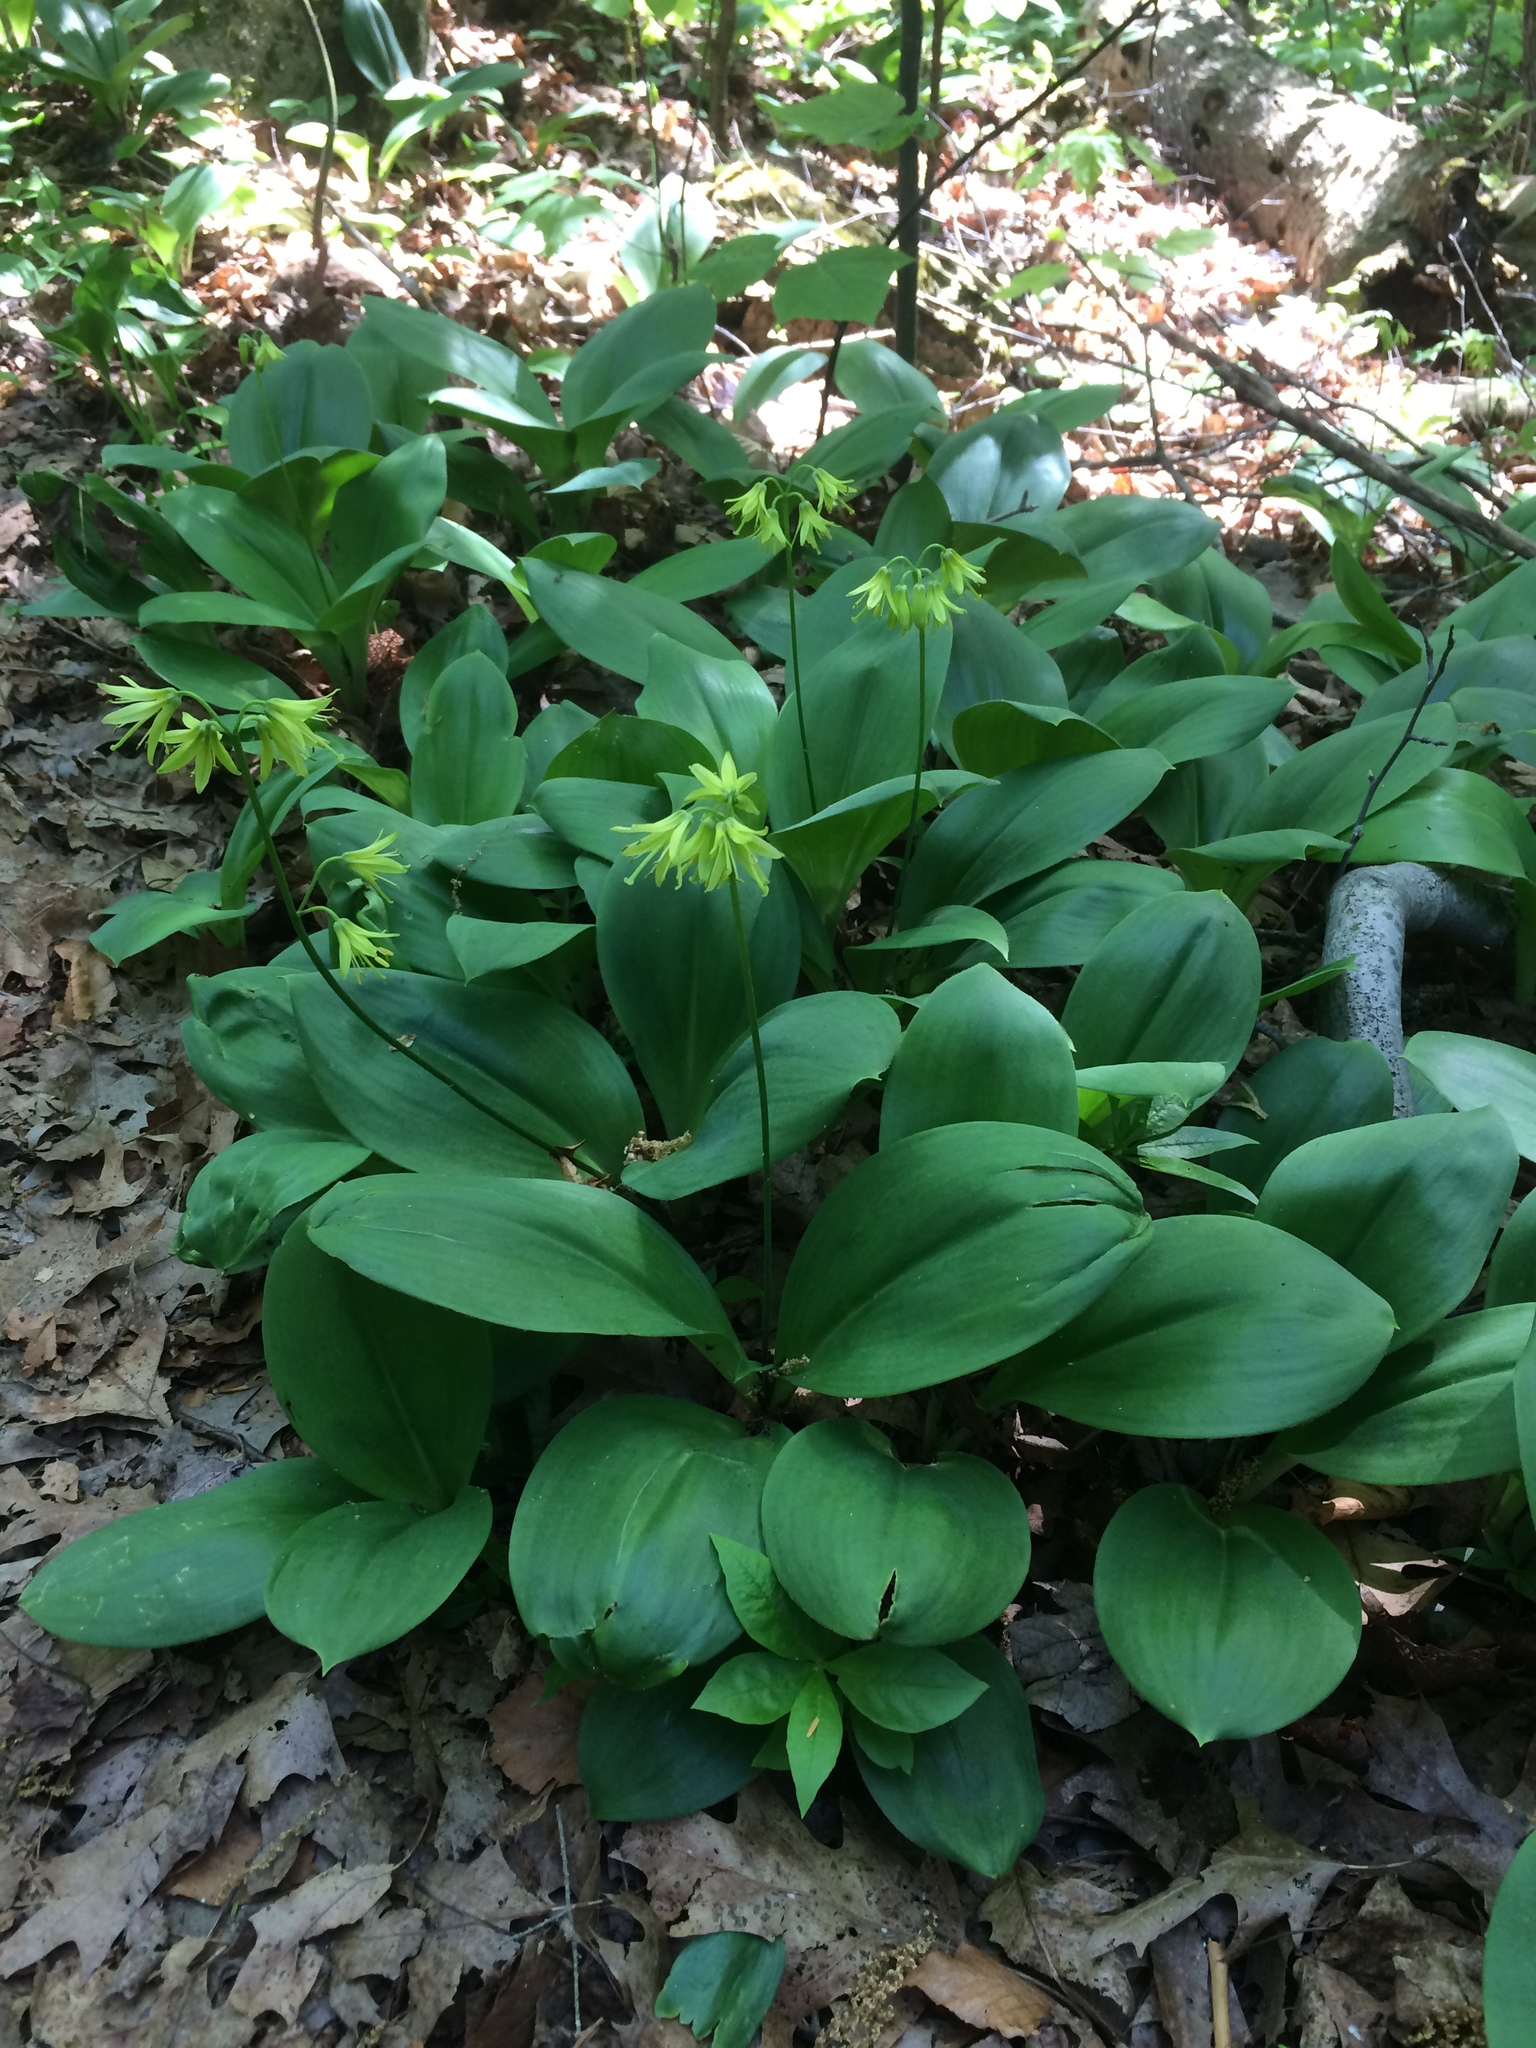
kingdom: Plantae
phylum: Tracheophyta
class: Liliopsida
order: Liliales
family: Liliaceae
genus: Clintonia
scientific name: Clintonia borealis
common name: Yellow clintonia
